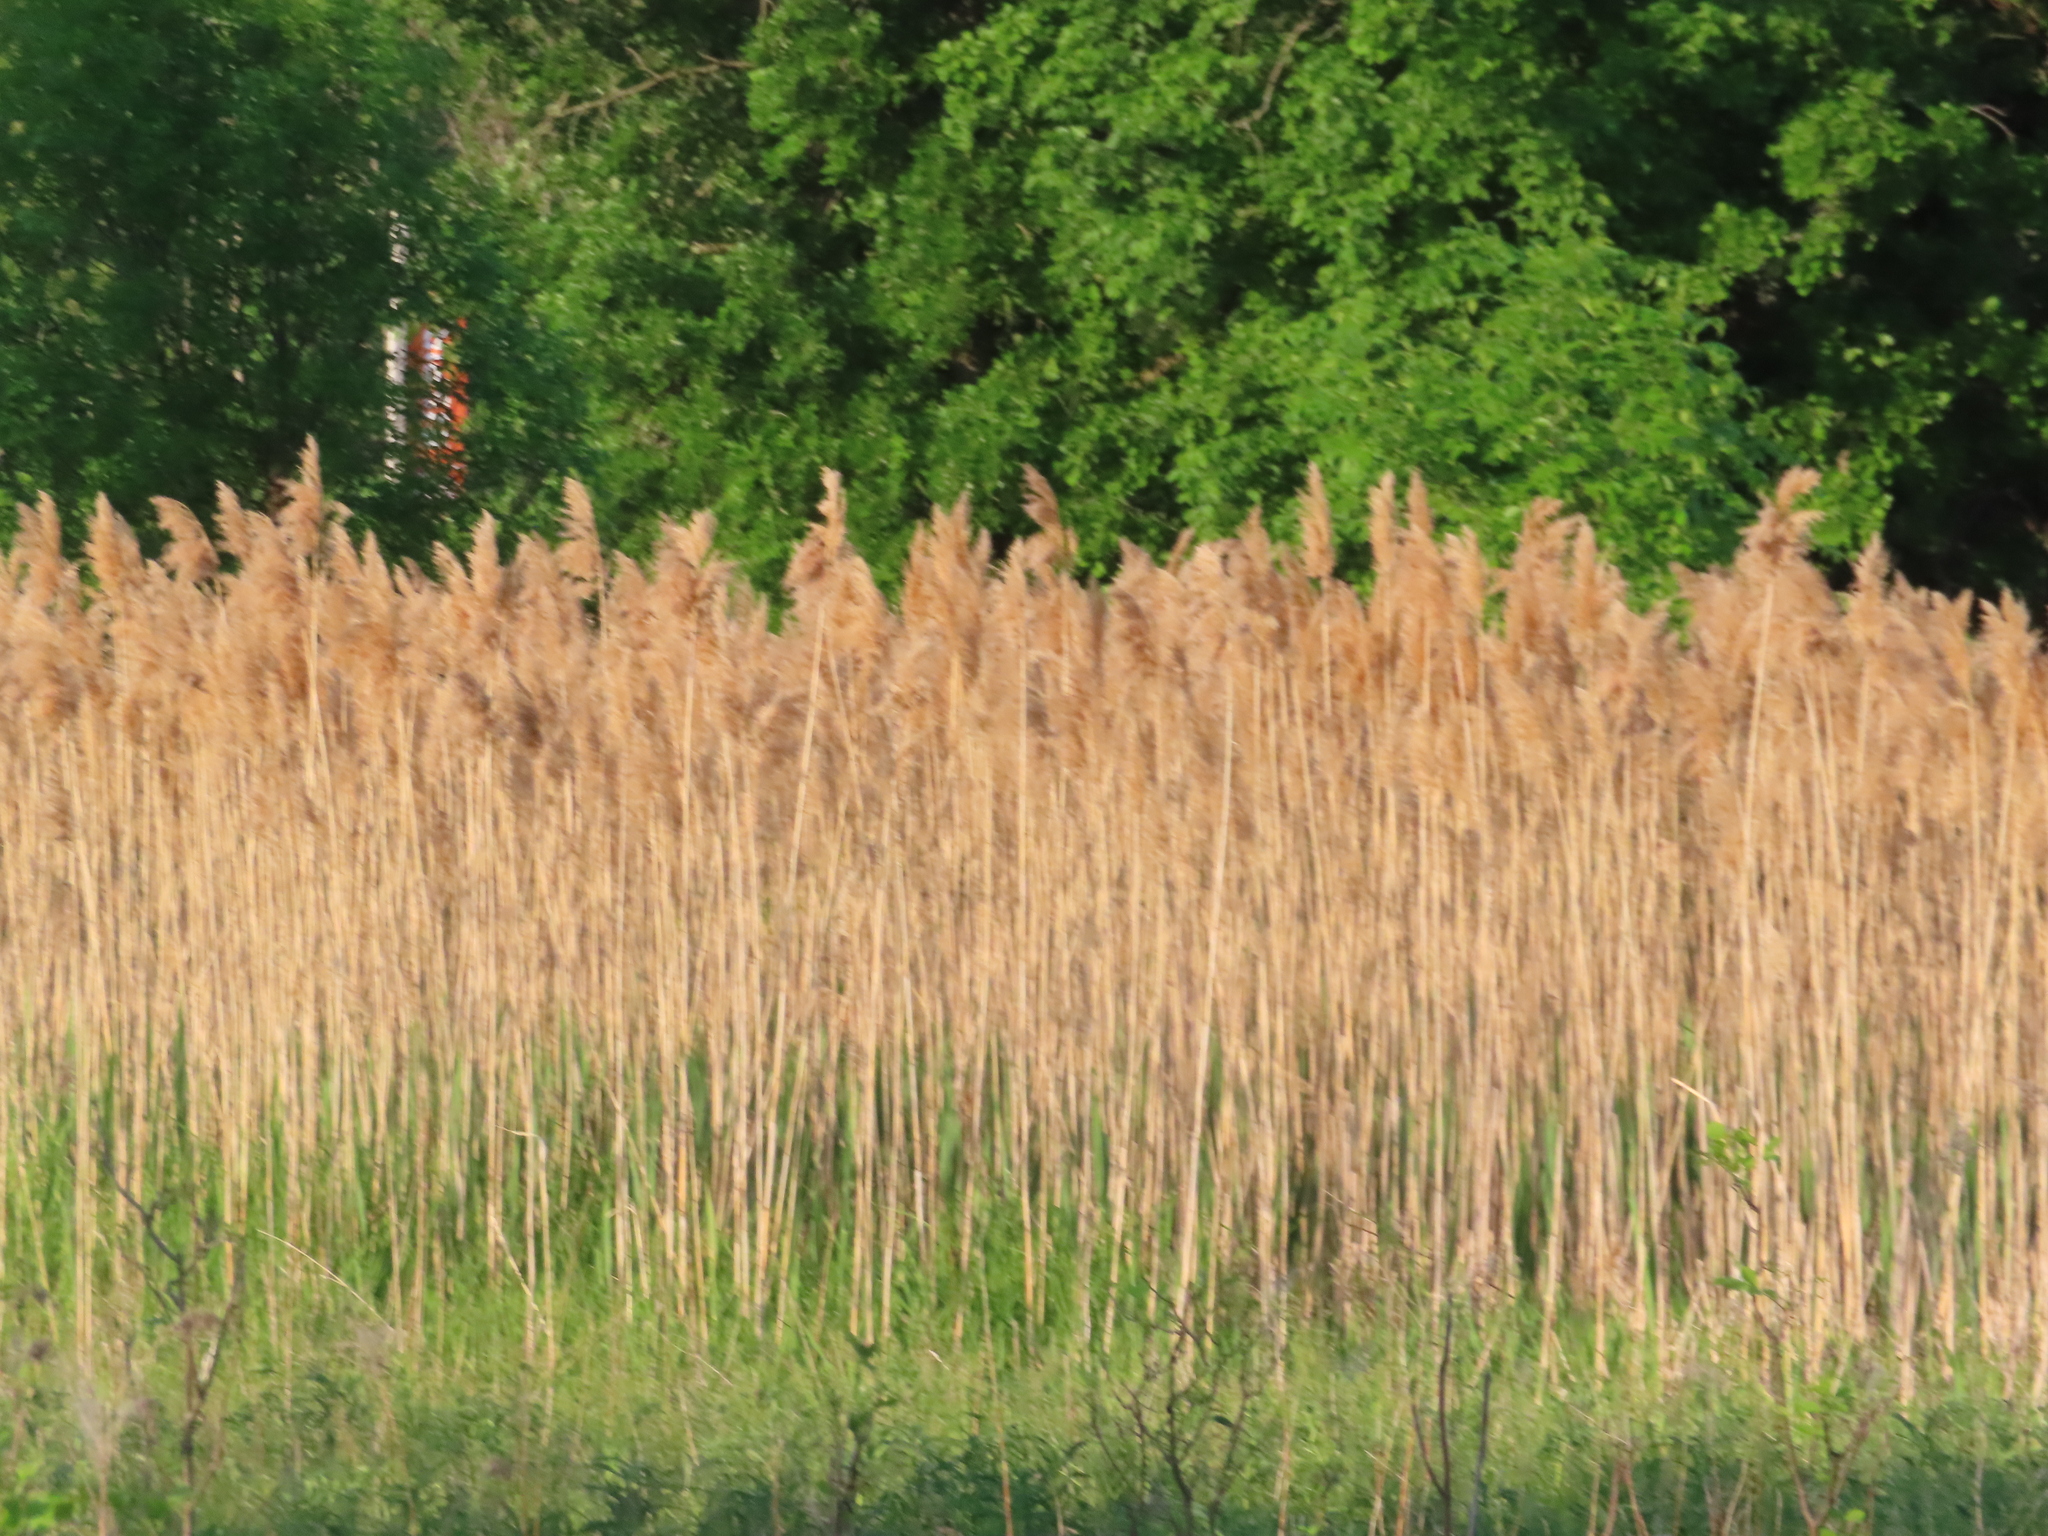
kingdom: Plantae
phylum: Tracheophyta
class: Liliopsida
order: Poales
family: Poaceae
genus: Phragmites
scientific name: Phragmites australis
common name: Common reed
